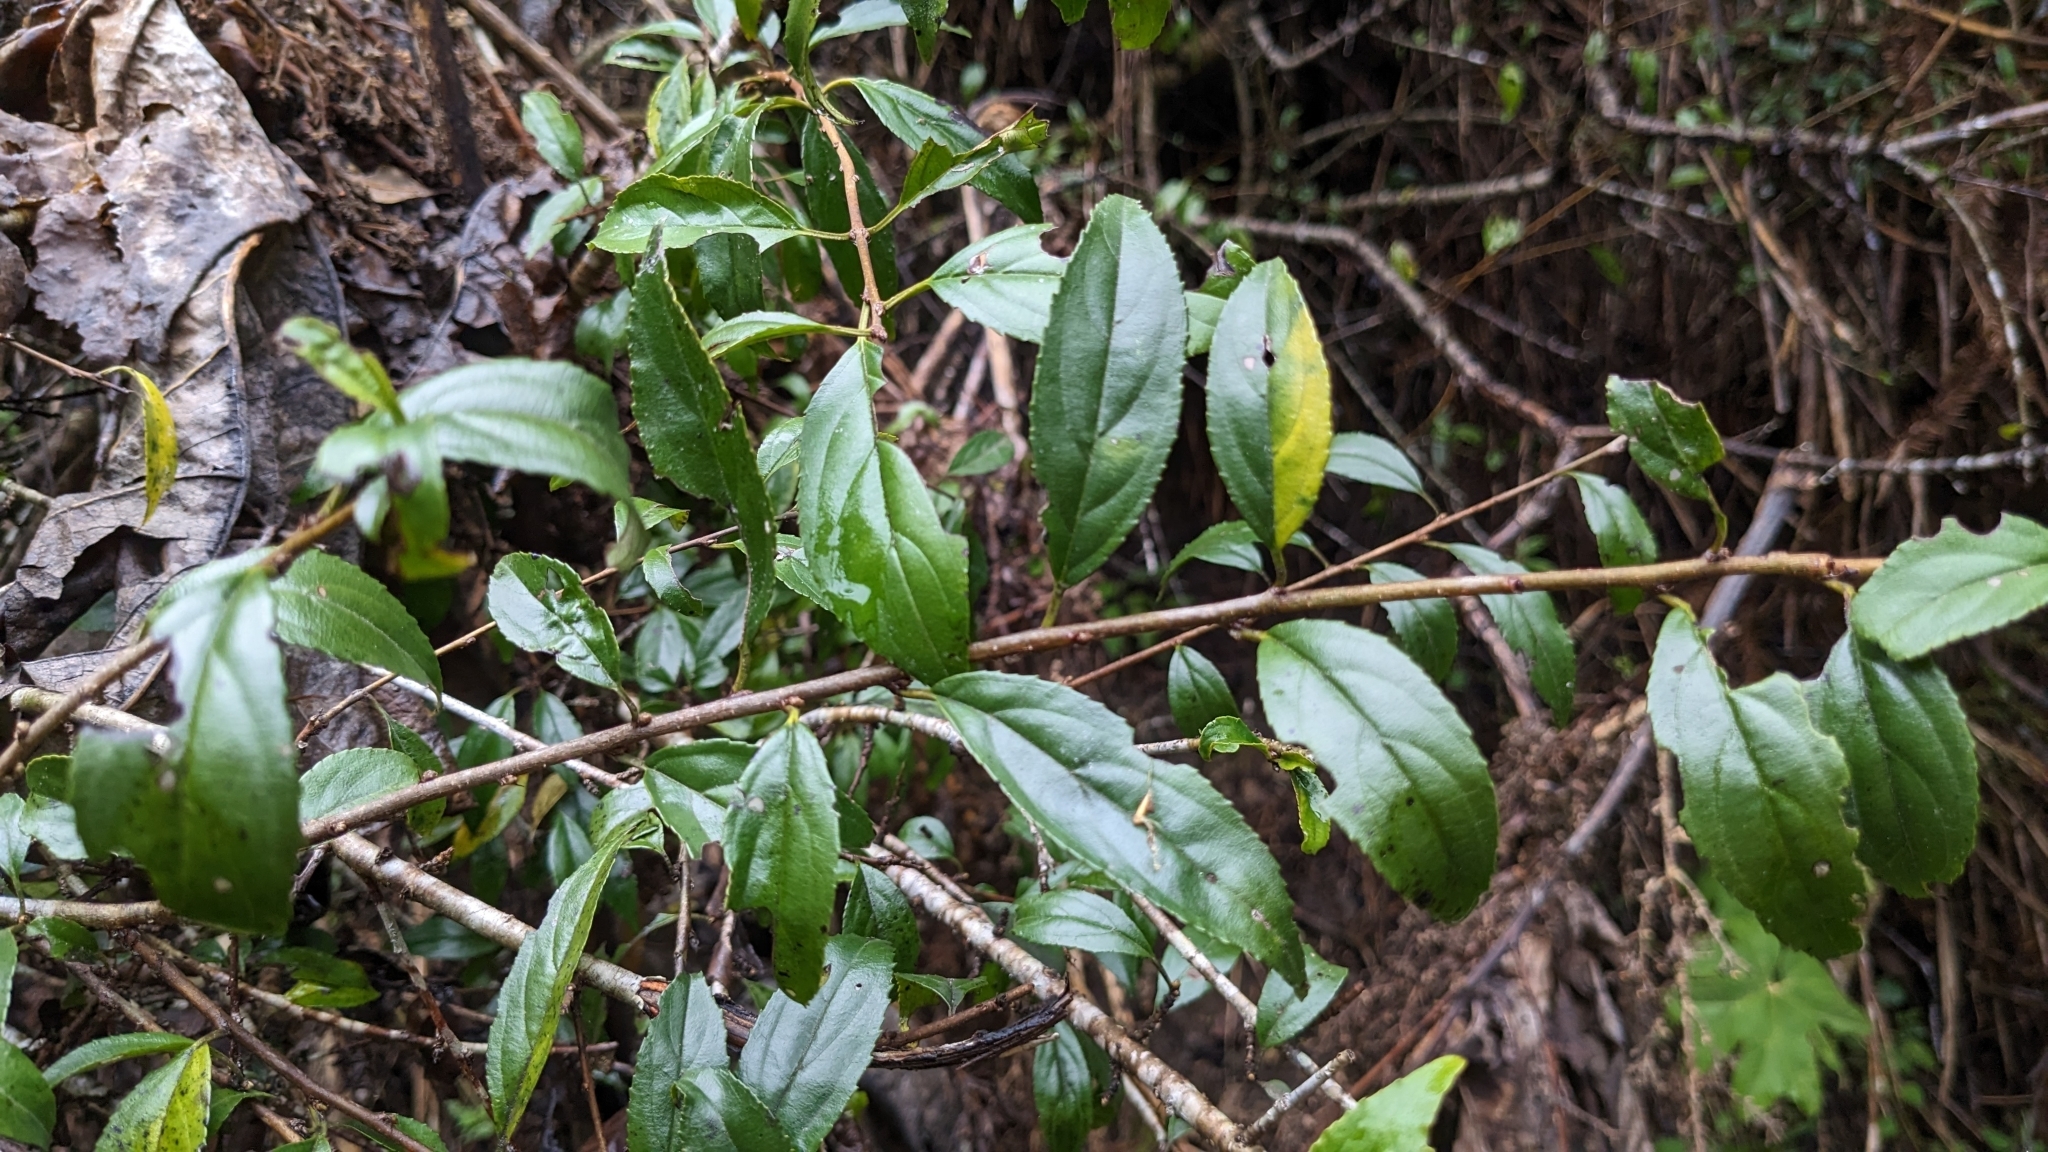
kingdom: Plantae
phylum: Tracheophyta
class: Magnoliopsida
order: Dipsacales
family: Viburnaceae
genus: Viburnum
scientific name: Viburnum taitoense
